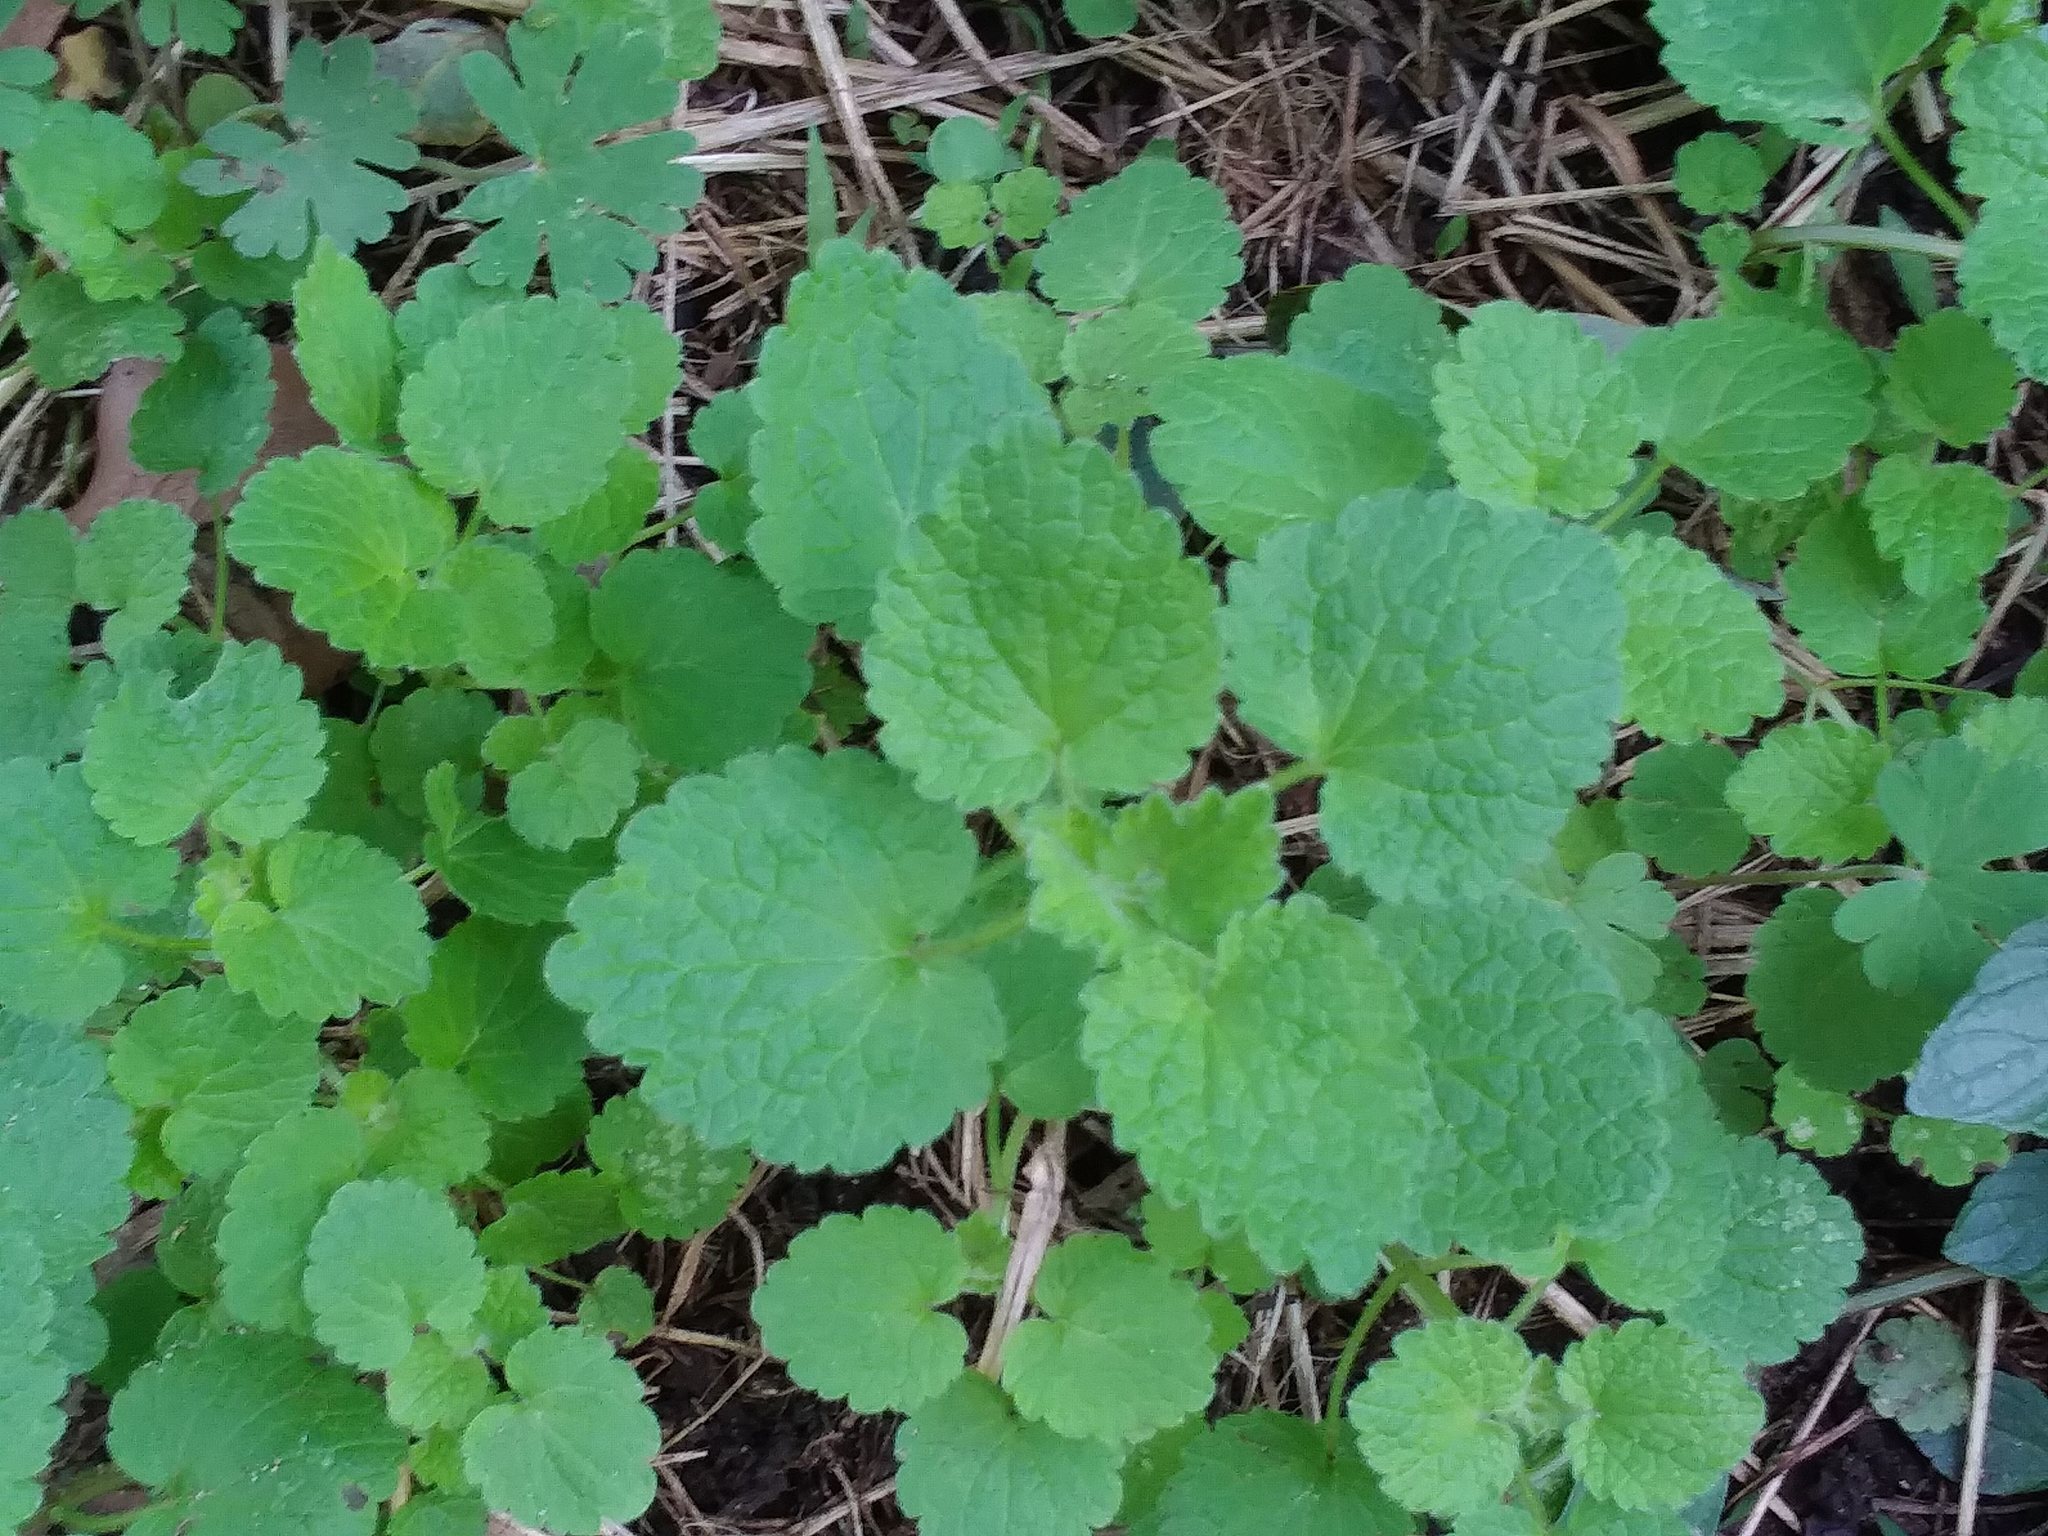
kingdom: Plantae
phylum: Tracheophyta
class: Magnoliopsida
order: Lamiales
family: Lamiaceae
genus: Lamium
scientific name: Lamium purpureum
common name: Red dead-nettle
